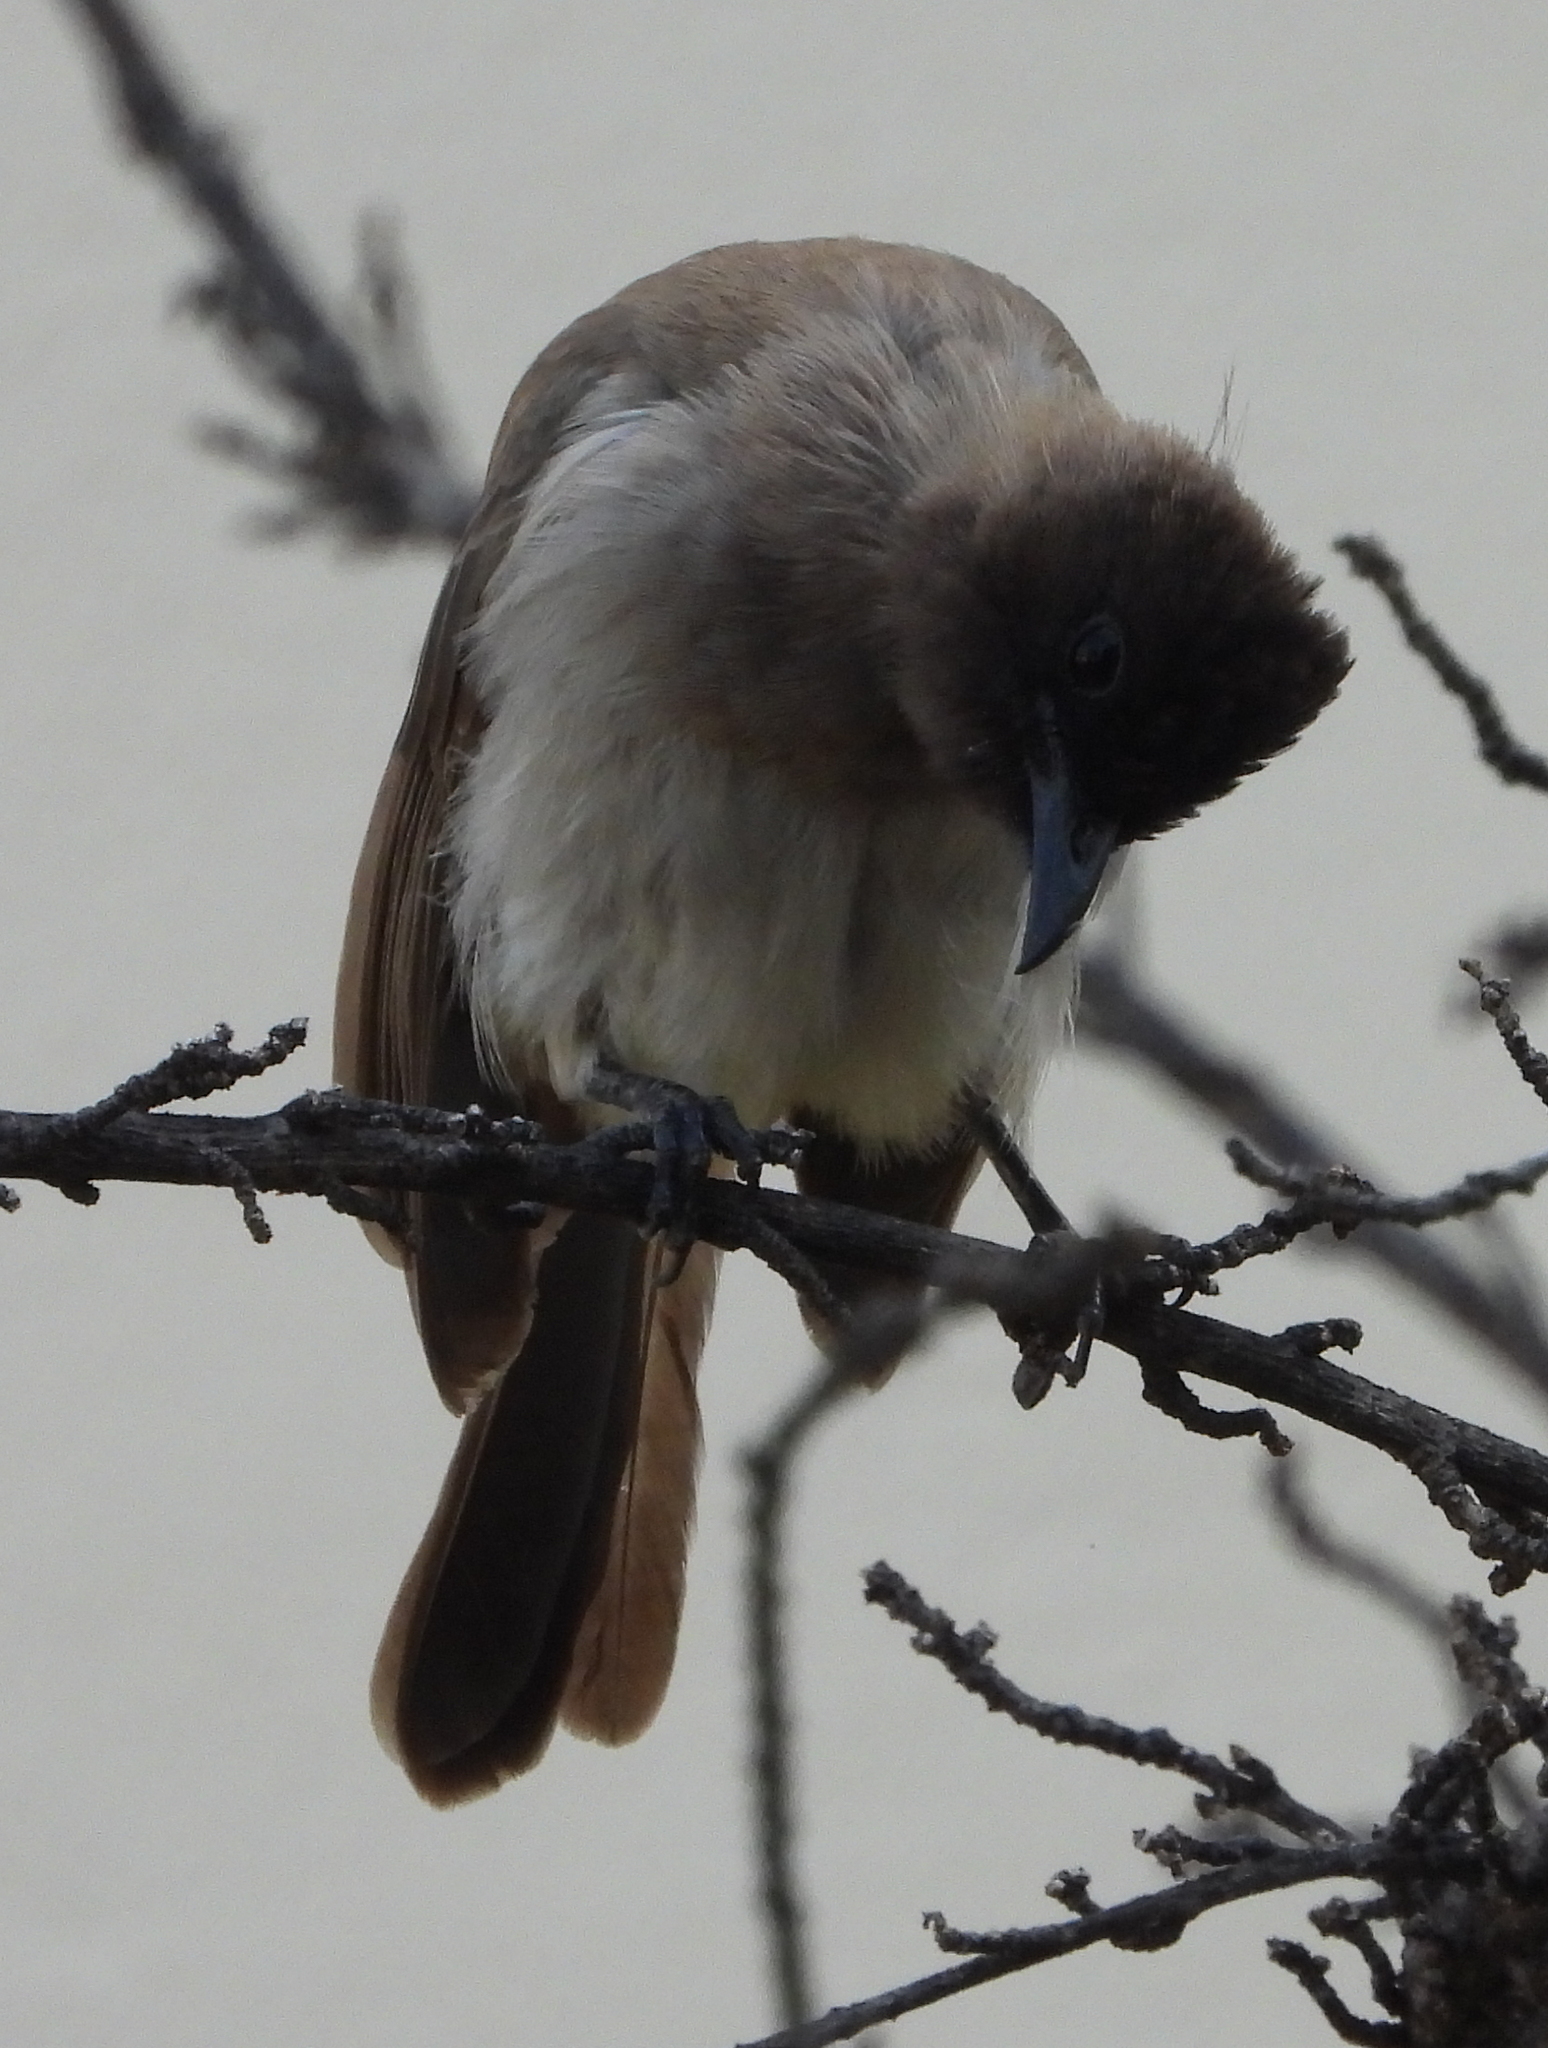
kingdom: Animalia
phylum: Chordata
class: Aves
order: Passeriformes
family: Pycnonotidae
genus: Pycnonotus
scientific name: Pycnonotus barbatus
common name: Common bulbul
